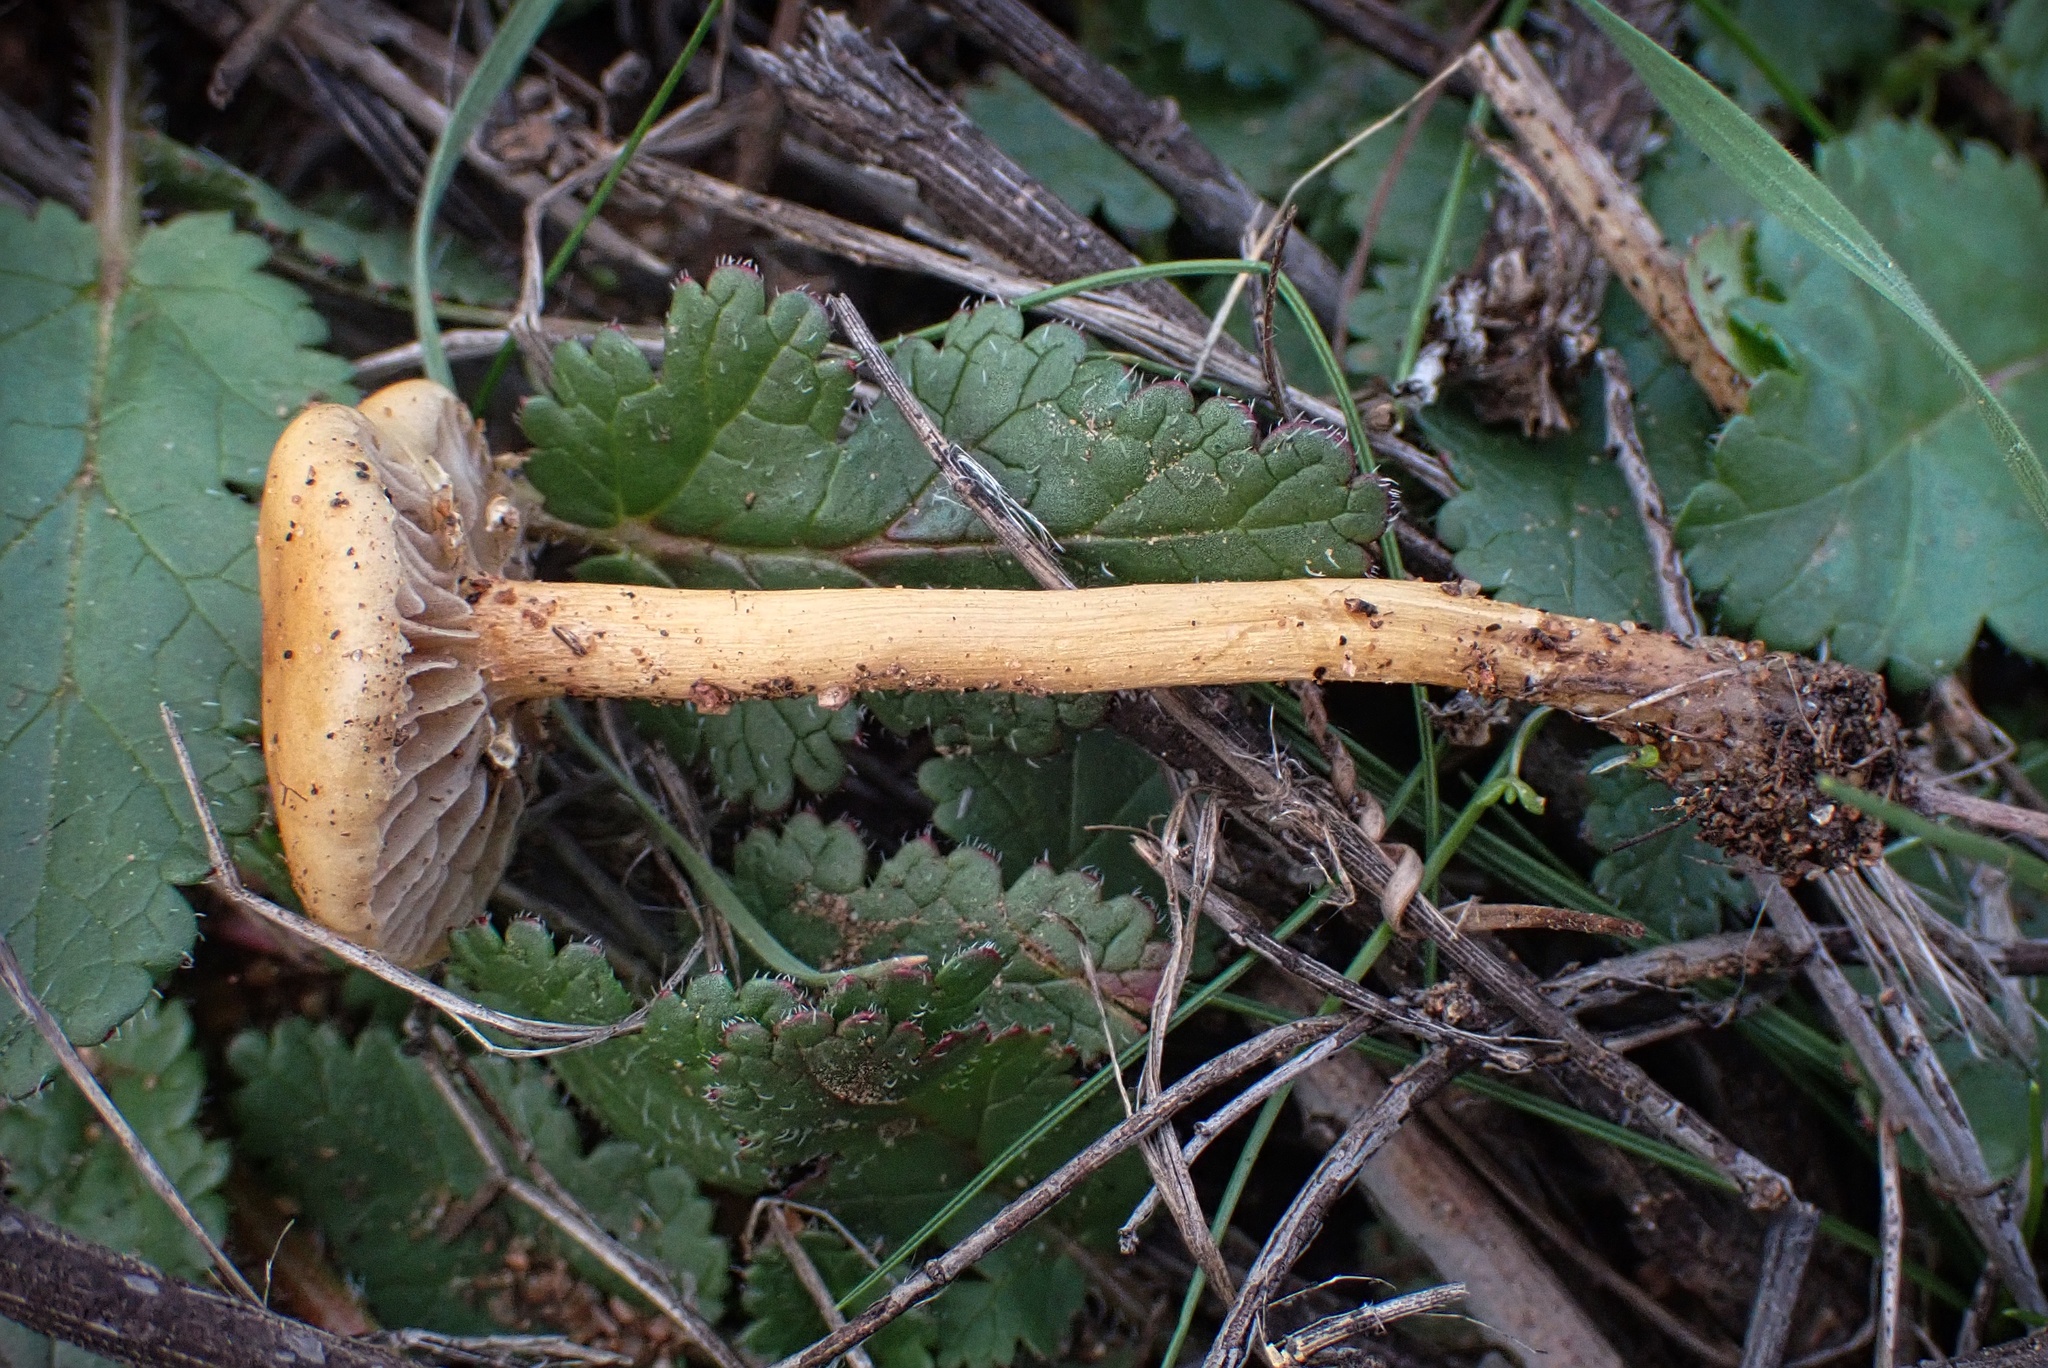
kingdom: Fungi
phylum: Basidiomycota
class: Agaricomycetes
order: Agaricales
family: Strophariaceae
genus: Agrocybe
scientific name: Agrocybe pediades
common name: Common fieldcap
